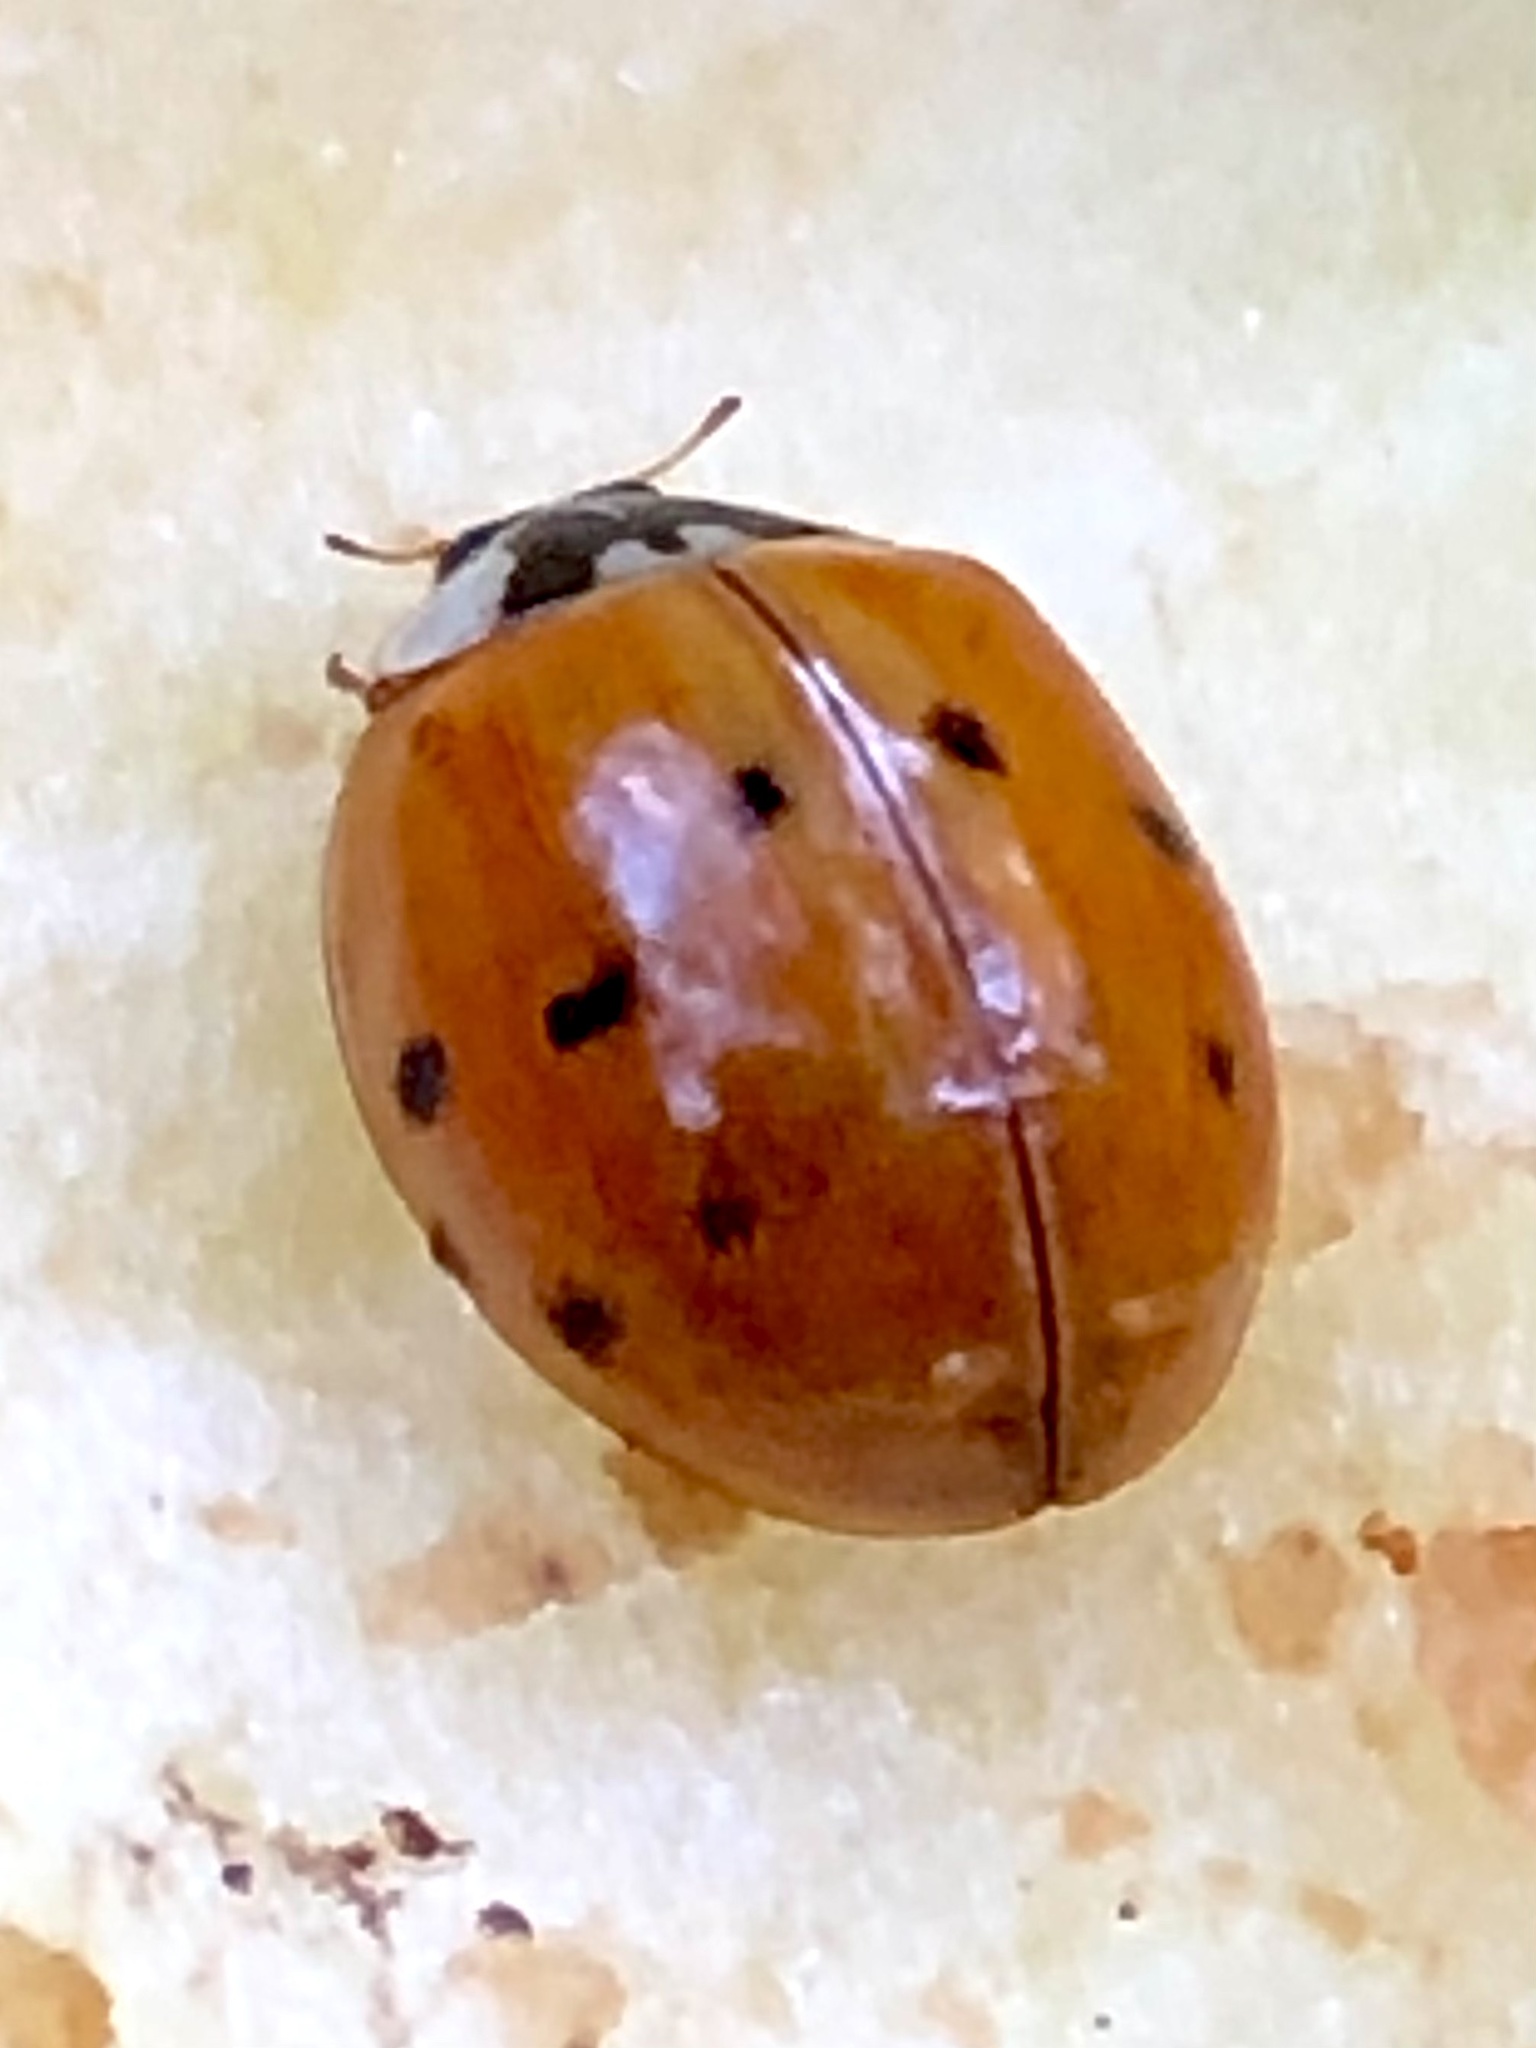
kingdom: Animalia
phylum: Arthropoda
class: Insecta
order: Coleoptera
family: Coccinellidae
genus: Harmonia
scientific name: Harmonia axyridis
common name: Harlequin ladybird
